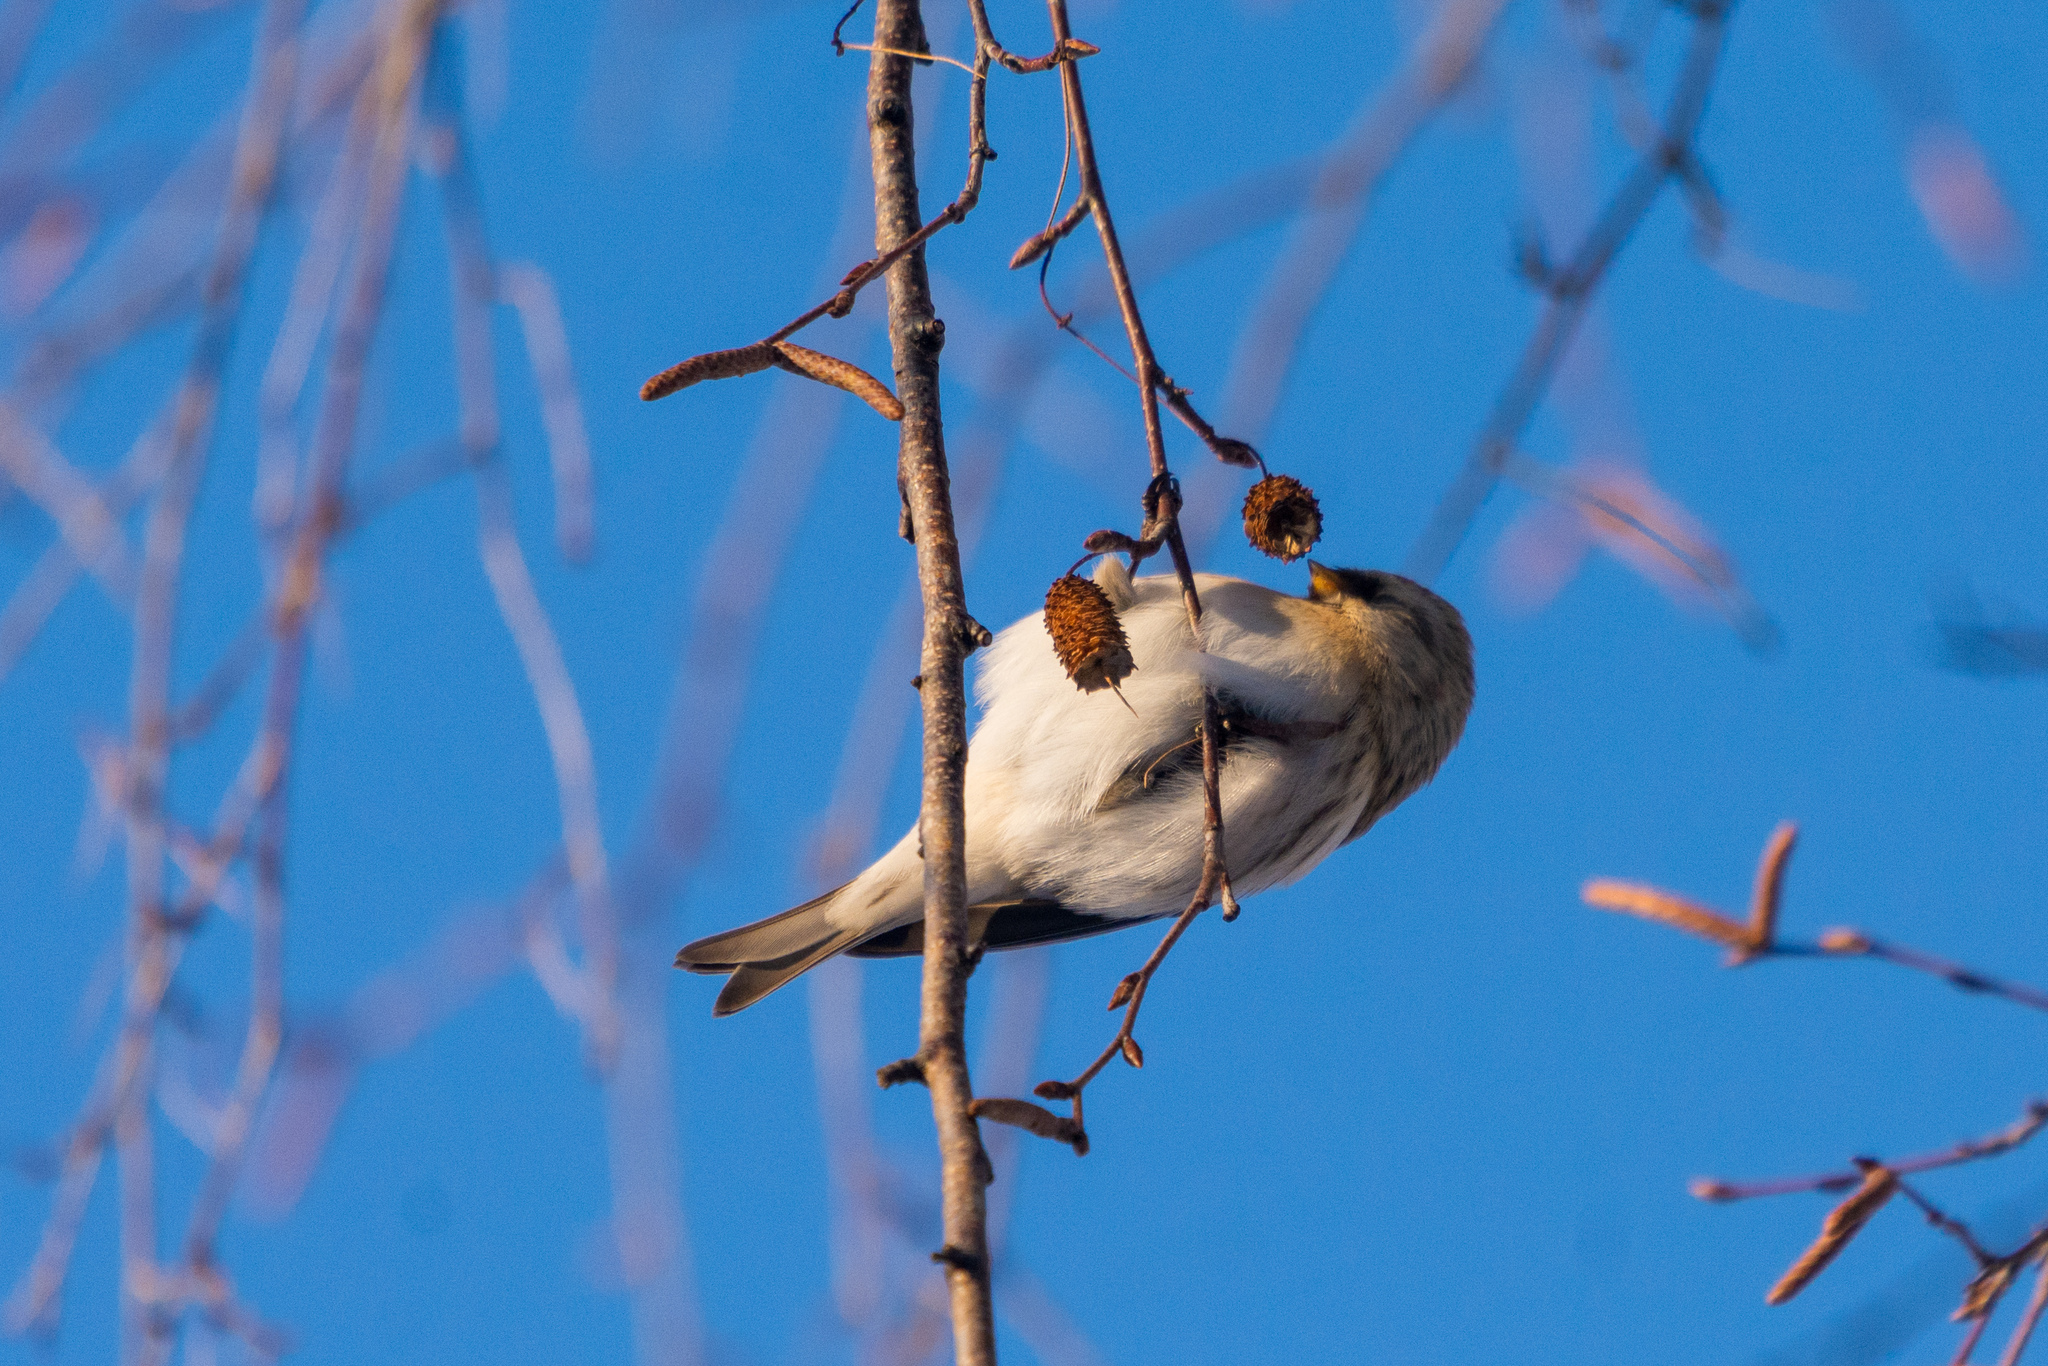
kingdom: Animalia
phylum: Chordata
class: Aves
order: Passeriformes
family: Fringillidae
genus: Acanthis
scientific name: Acanthis flammea
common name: Common redpoll
